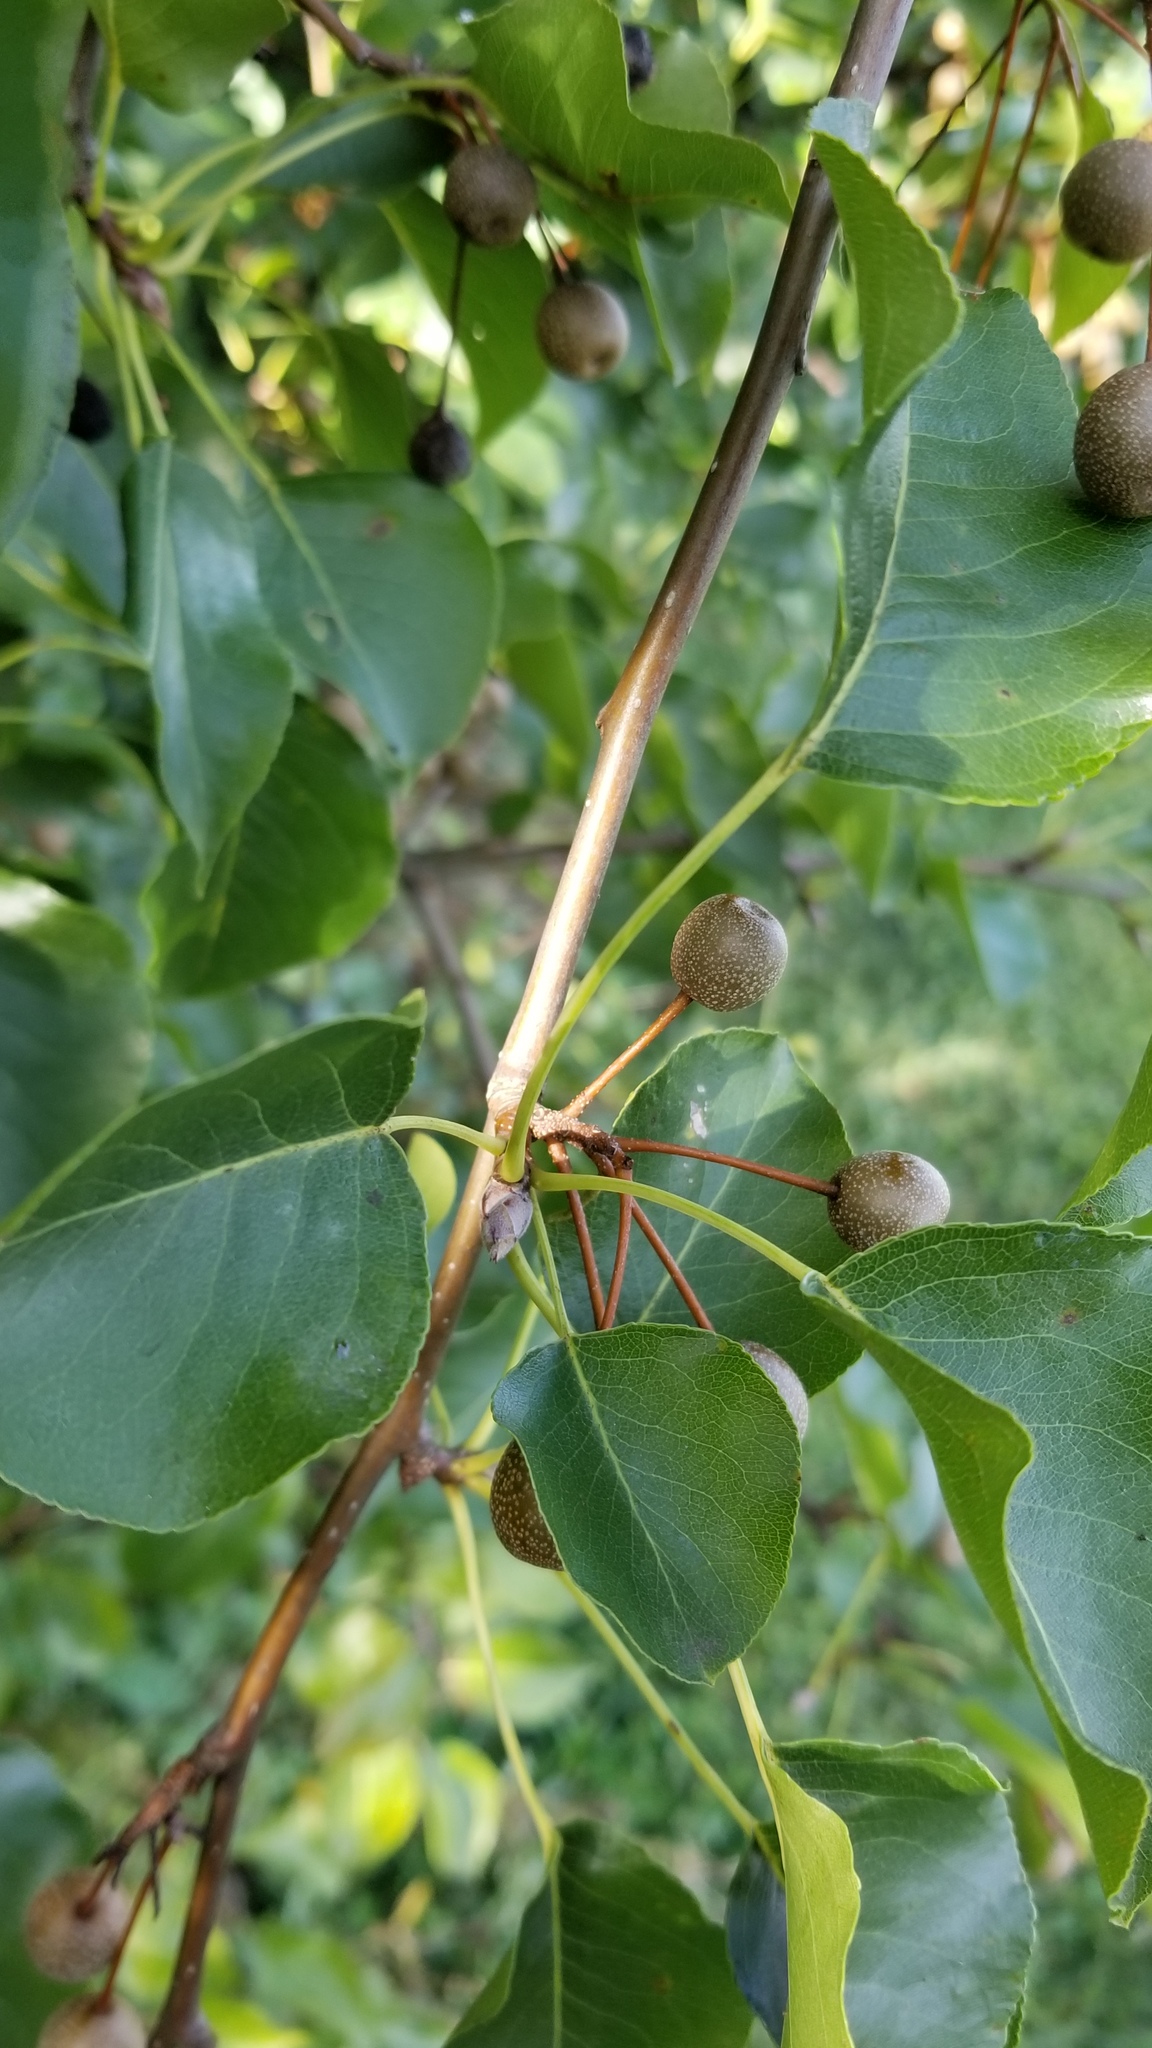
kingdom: Plantae
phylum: Tracheophyta
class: Magnoliopsida
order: Rosales
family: Rosaceae
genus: Pyrus
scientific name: Pyrus calleryana
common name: Callery pear
